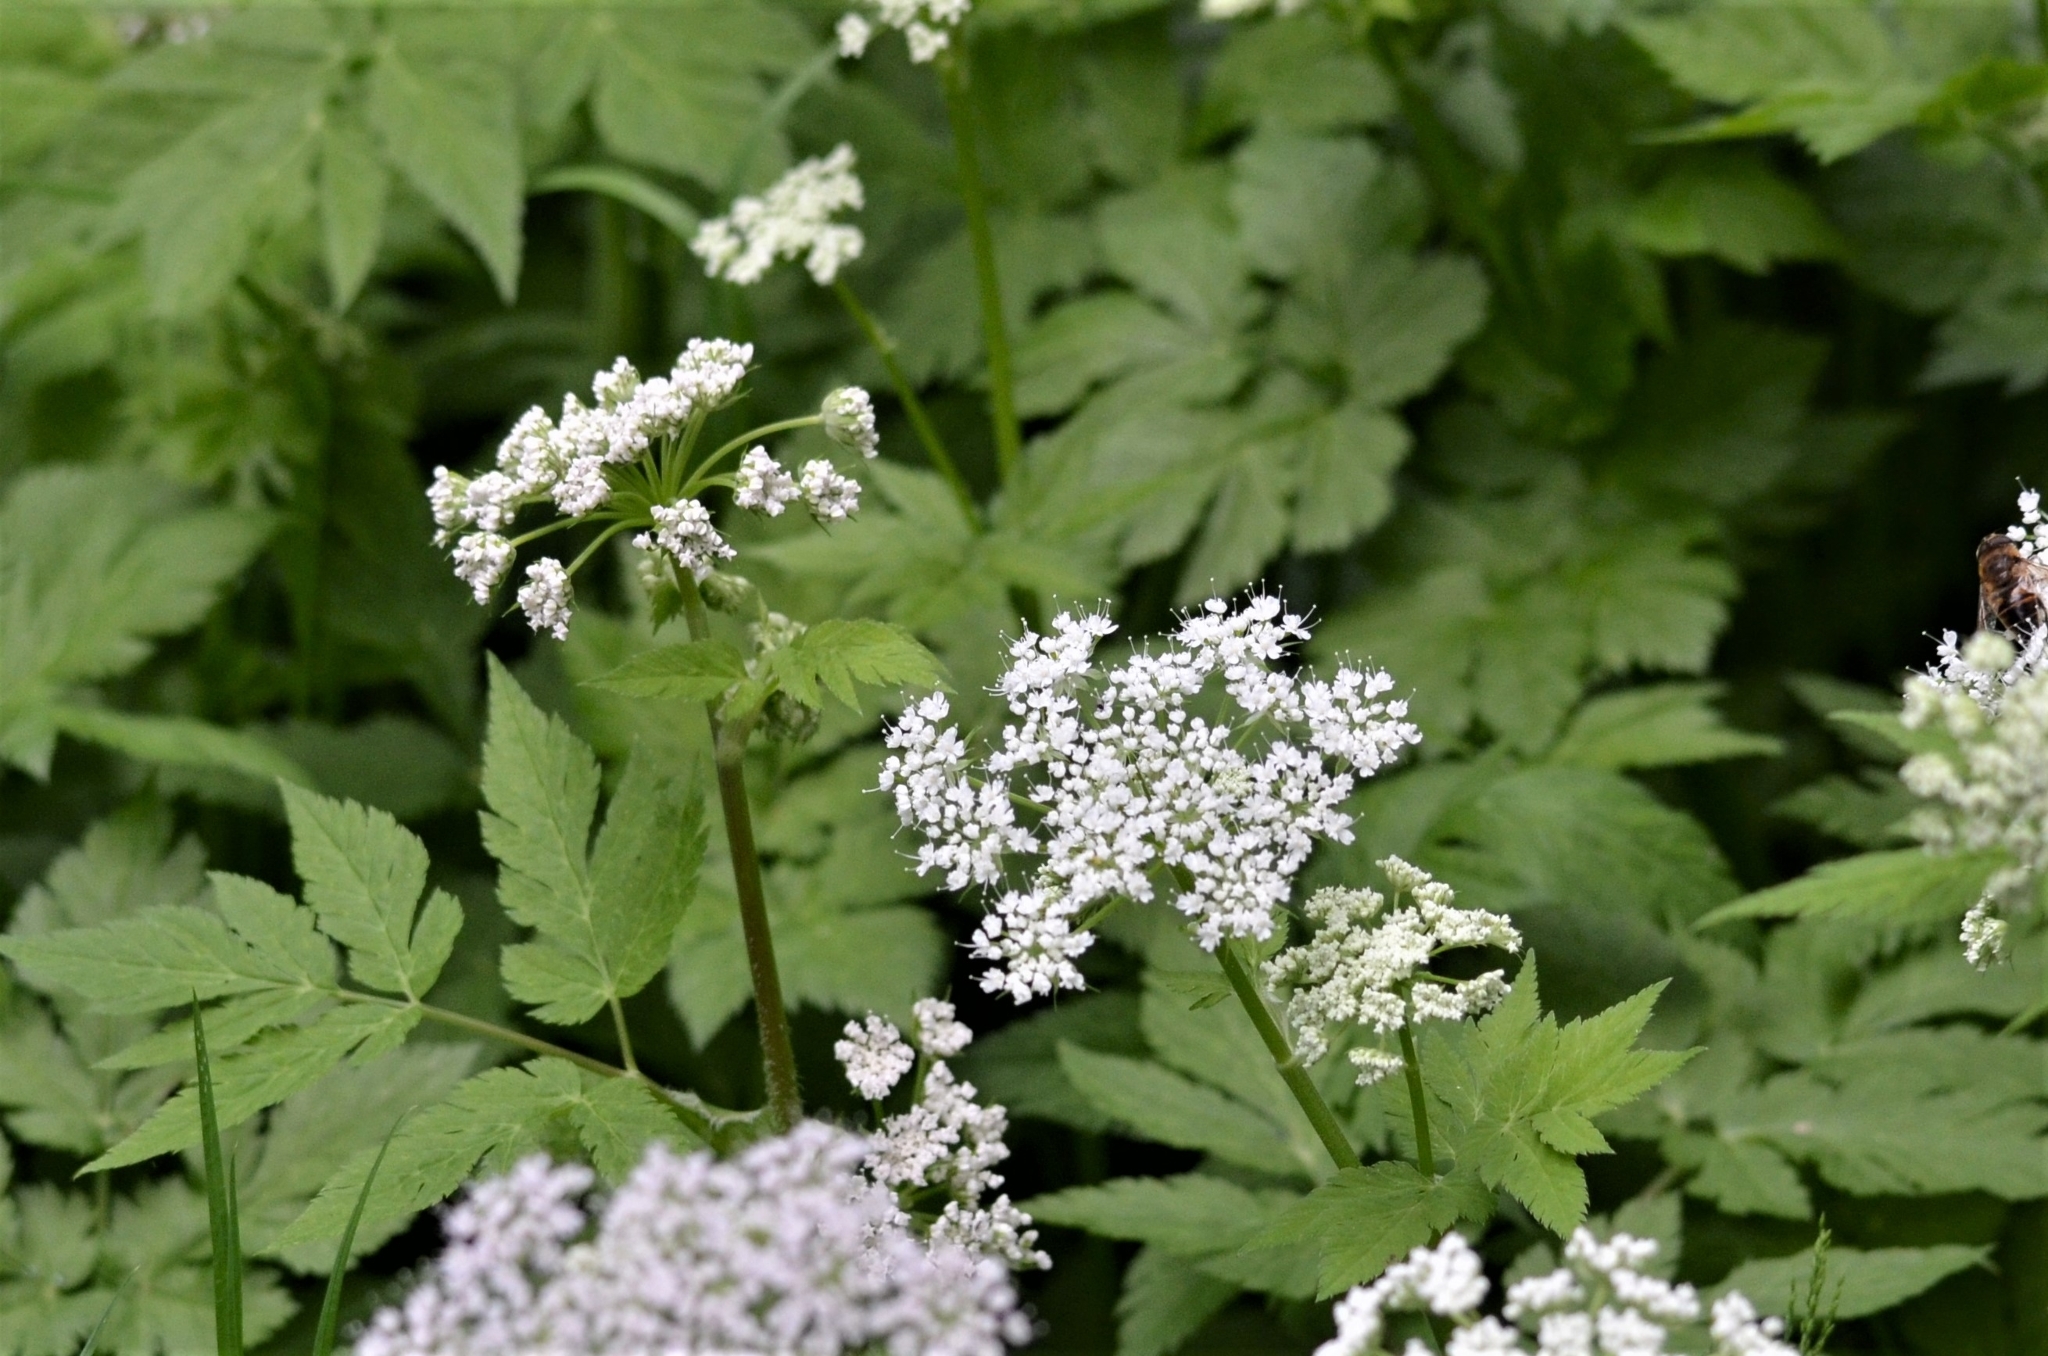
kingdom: Plantae
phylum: Tracheophyta
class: Magnoliopsida
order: Apiales
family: Apiaceae
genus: Chaerophyllum
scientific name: Chaerophyllum hirsutum
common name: Hairy chervil
